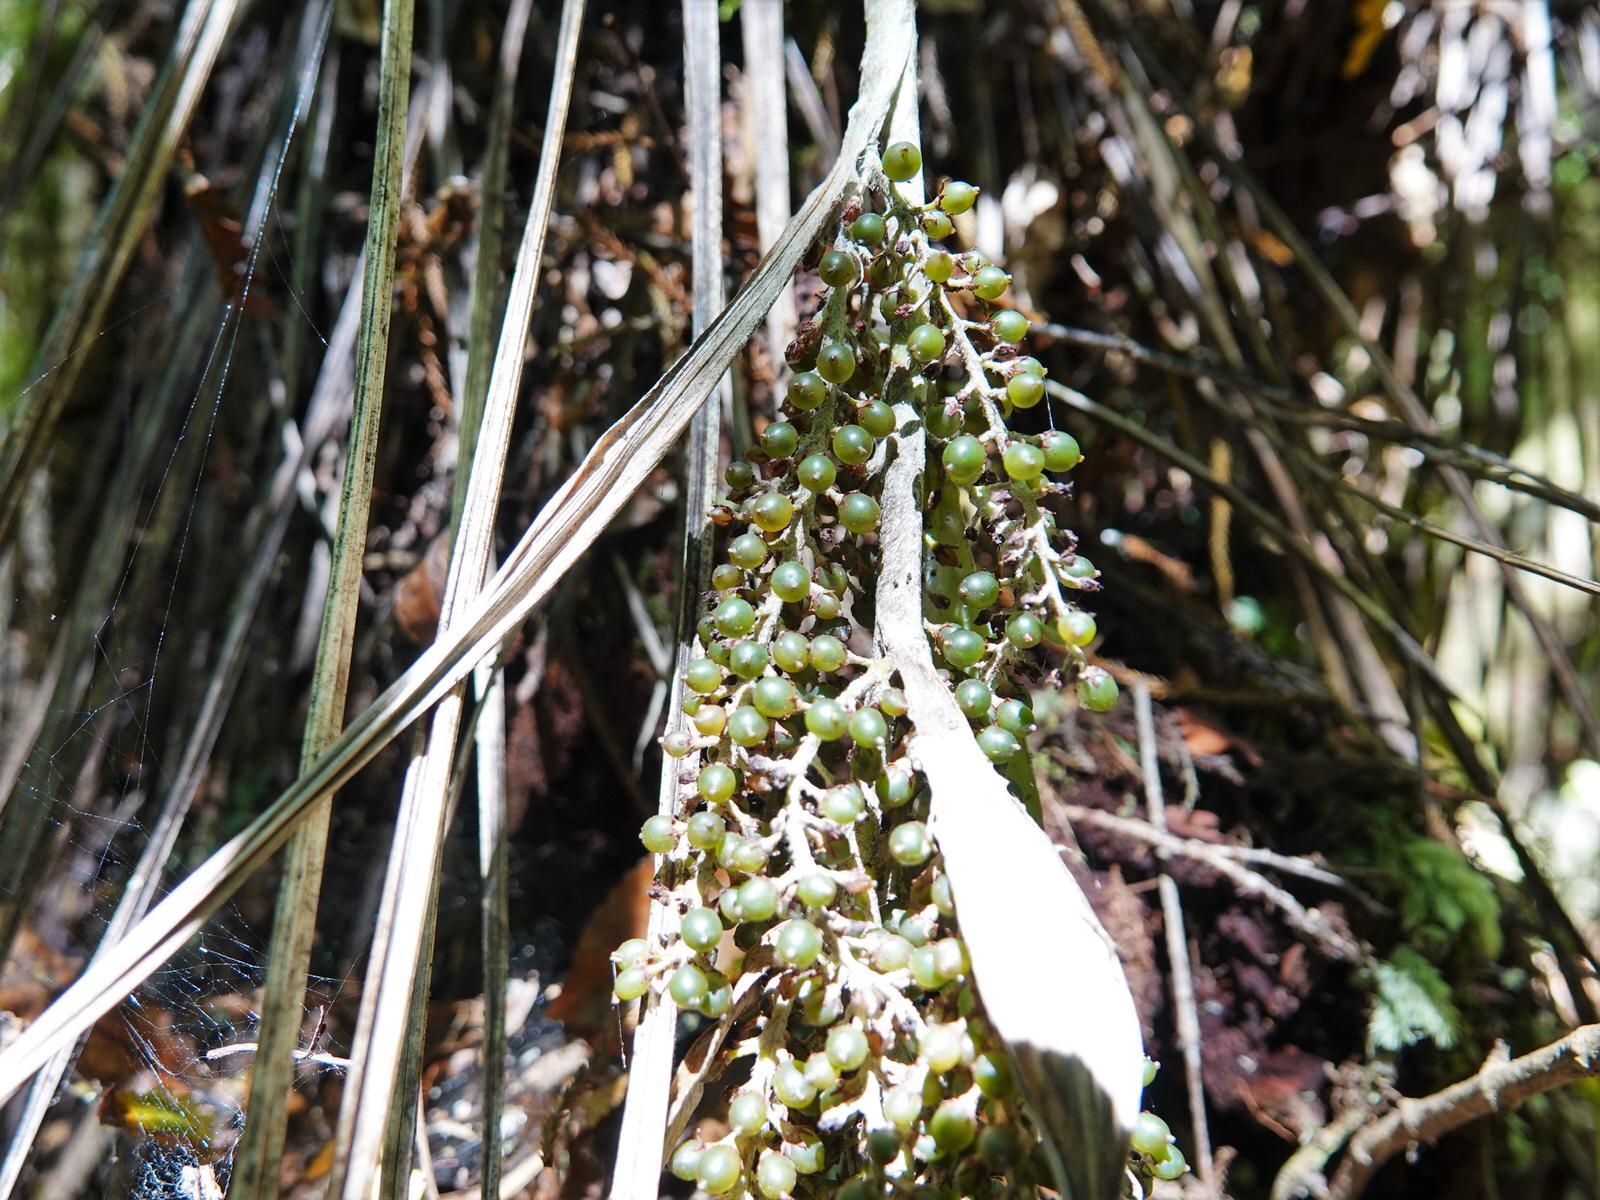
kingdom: Plantae
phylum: Tracheophyta
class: Liliopsida
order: Asparagales
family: Asteliaceae
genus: Astelia
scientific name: Astelia solandri
